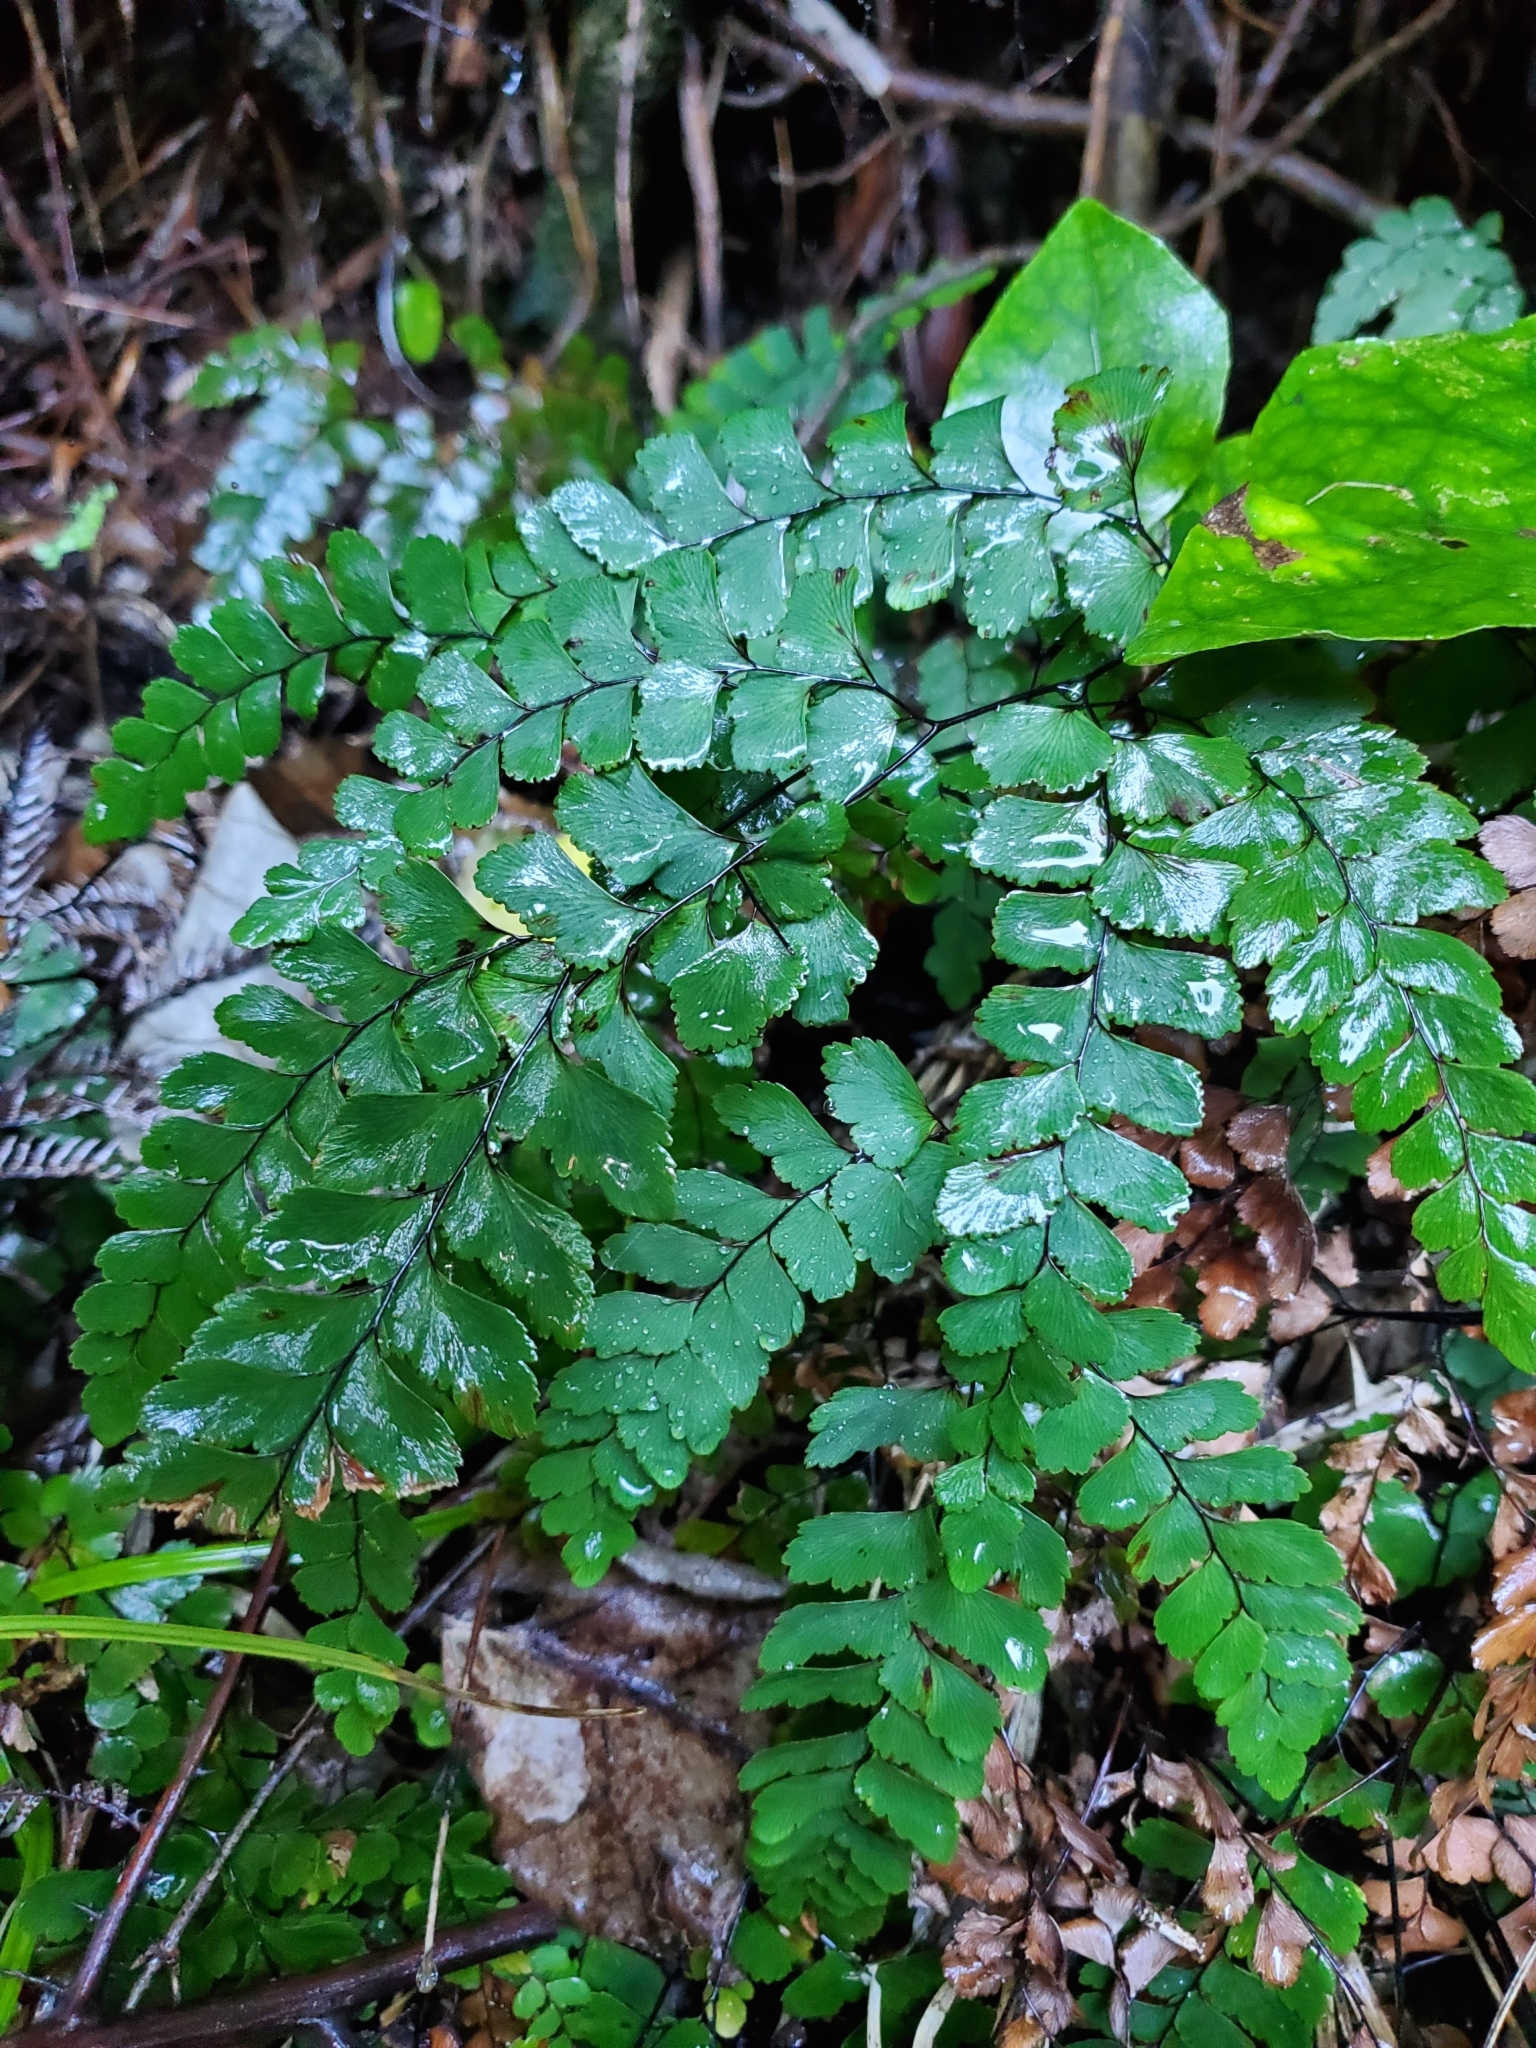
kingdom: Plantae
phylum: Tracheophyta
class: Polypodiopsida
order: Polypodiales
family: Pteridaceae
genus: Adiantum
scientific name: Adiantum cunninghamii
